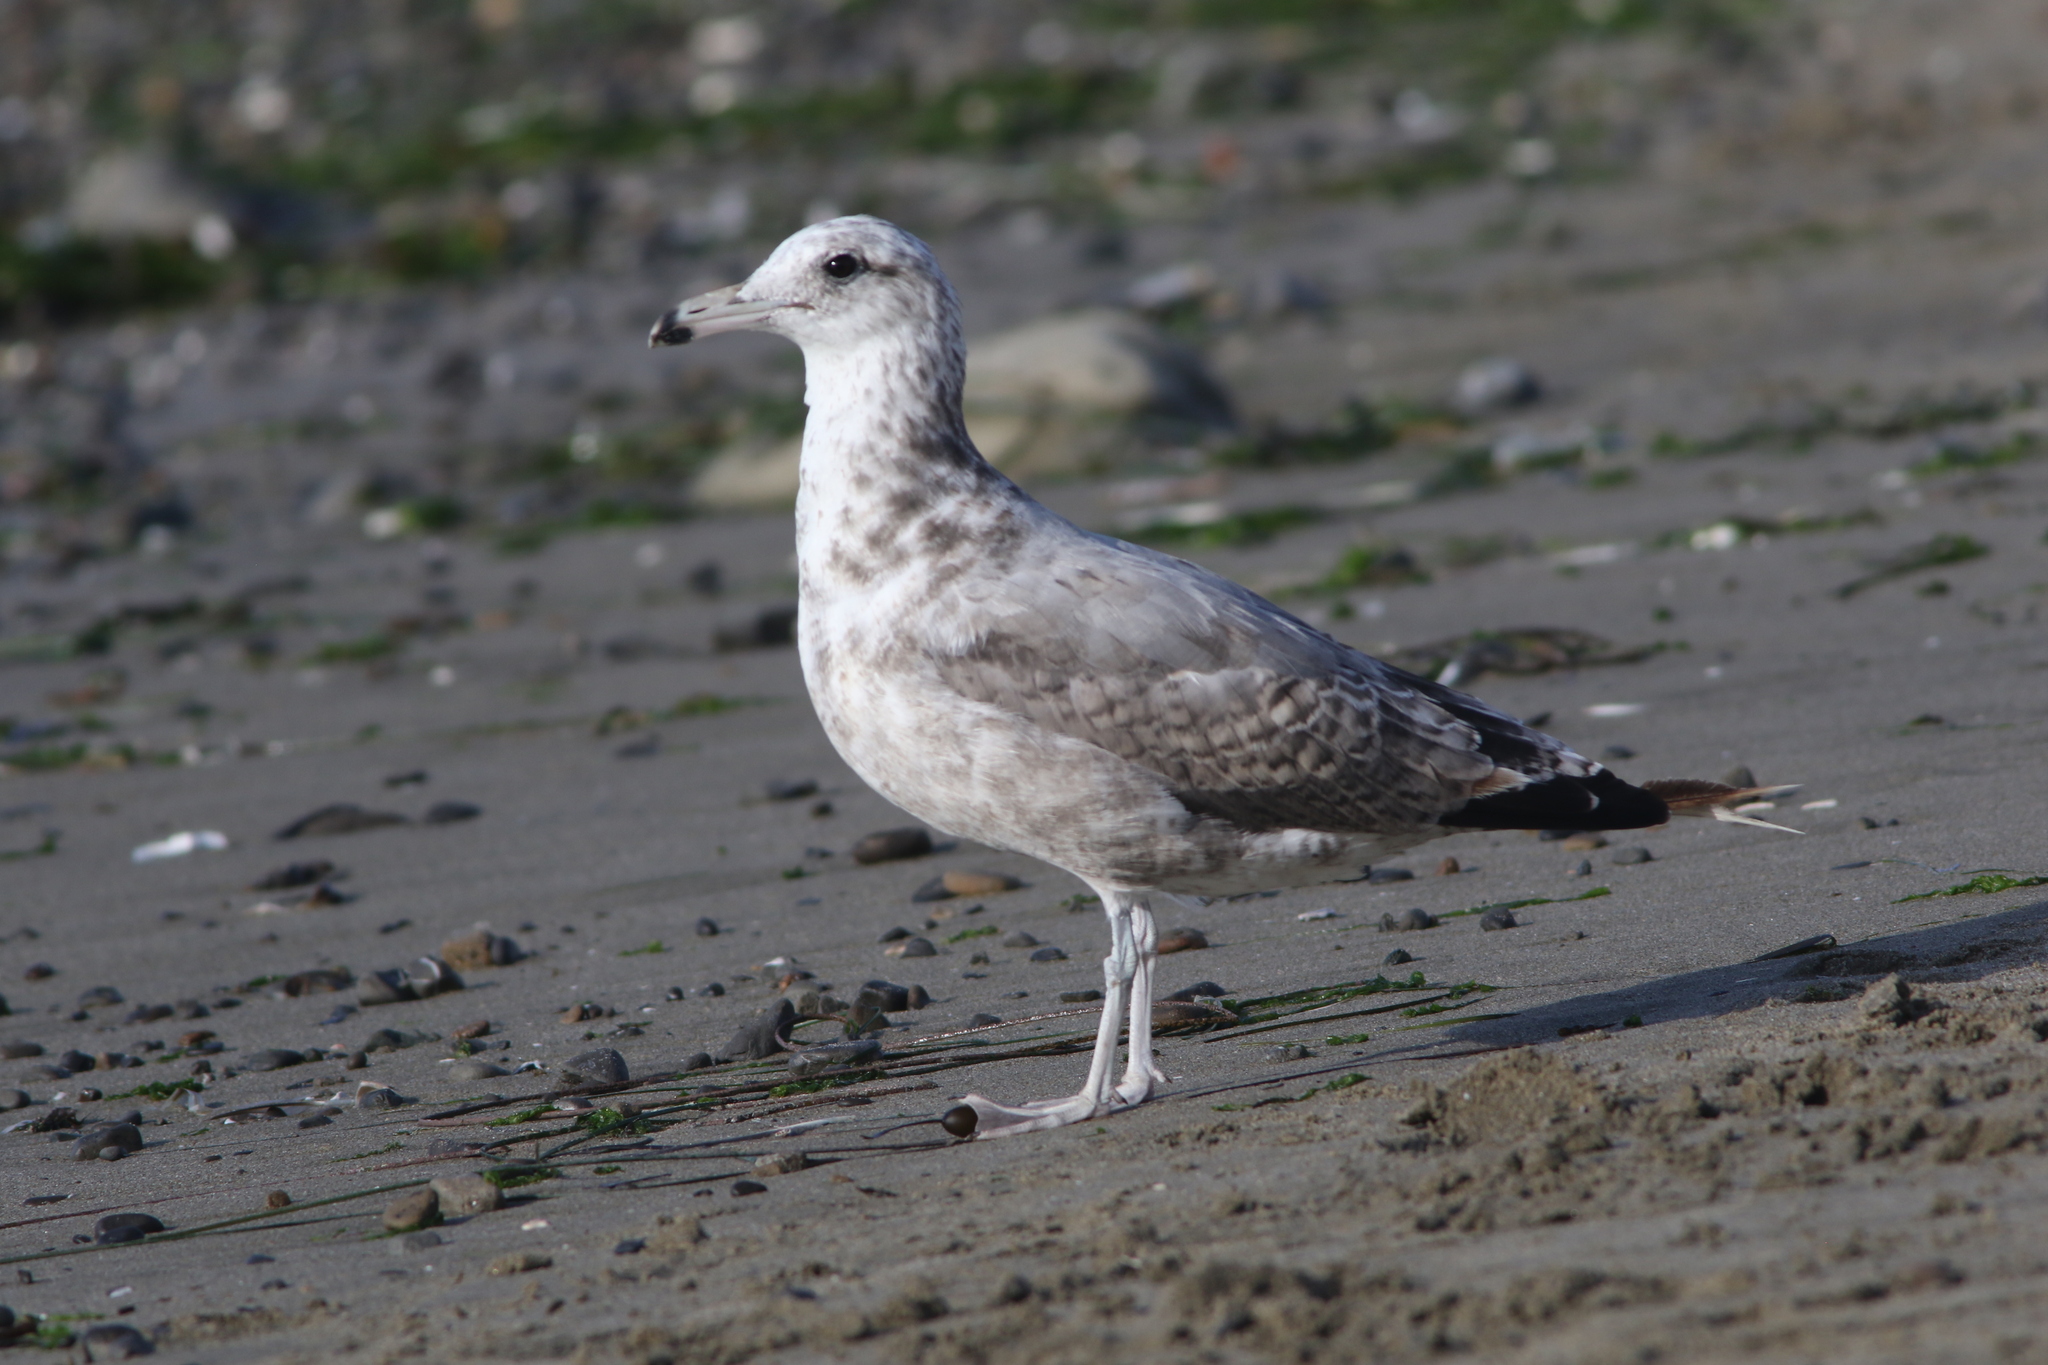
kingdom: Animalia
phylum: Chordata
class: Aves
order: Charadriiformes
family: Laridae
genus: Larus
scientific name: Larus californicus
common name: California gull
